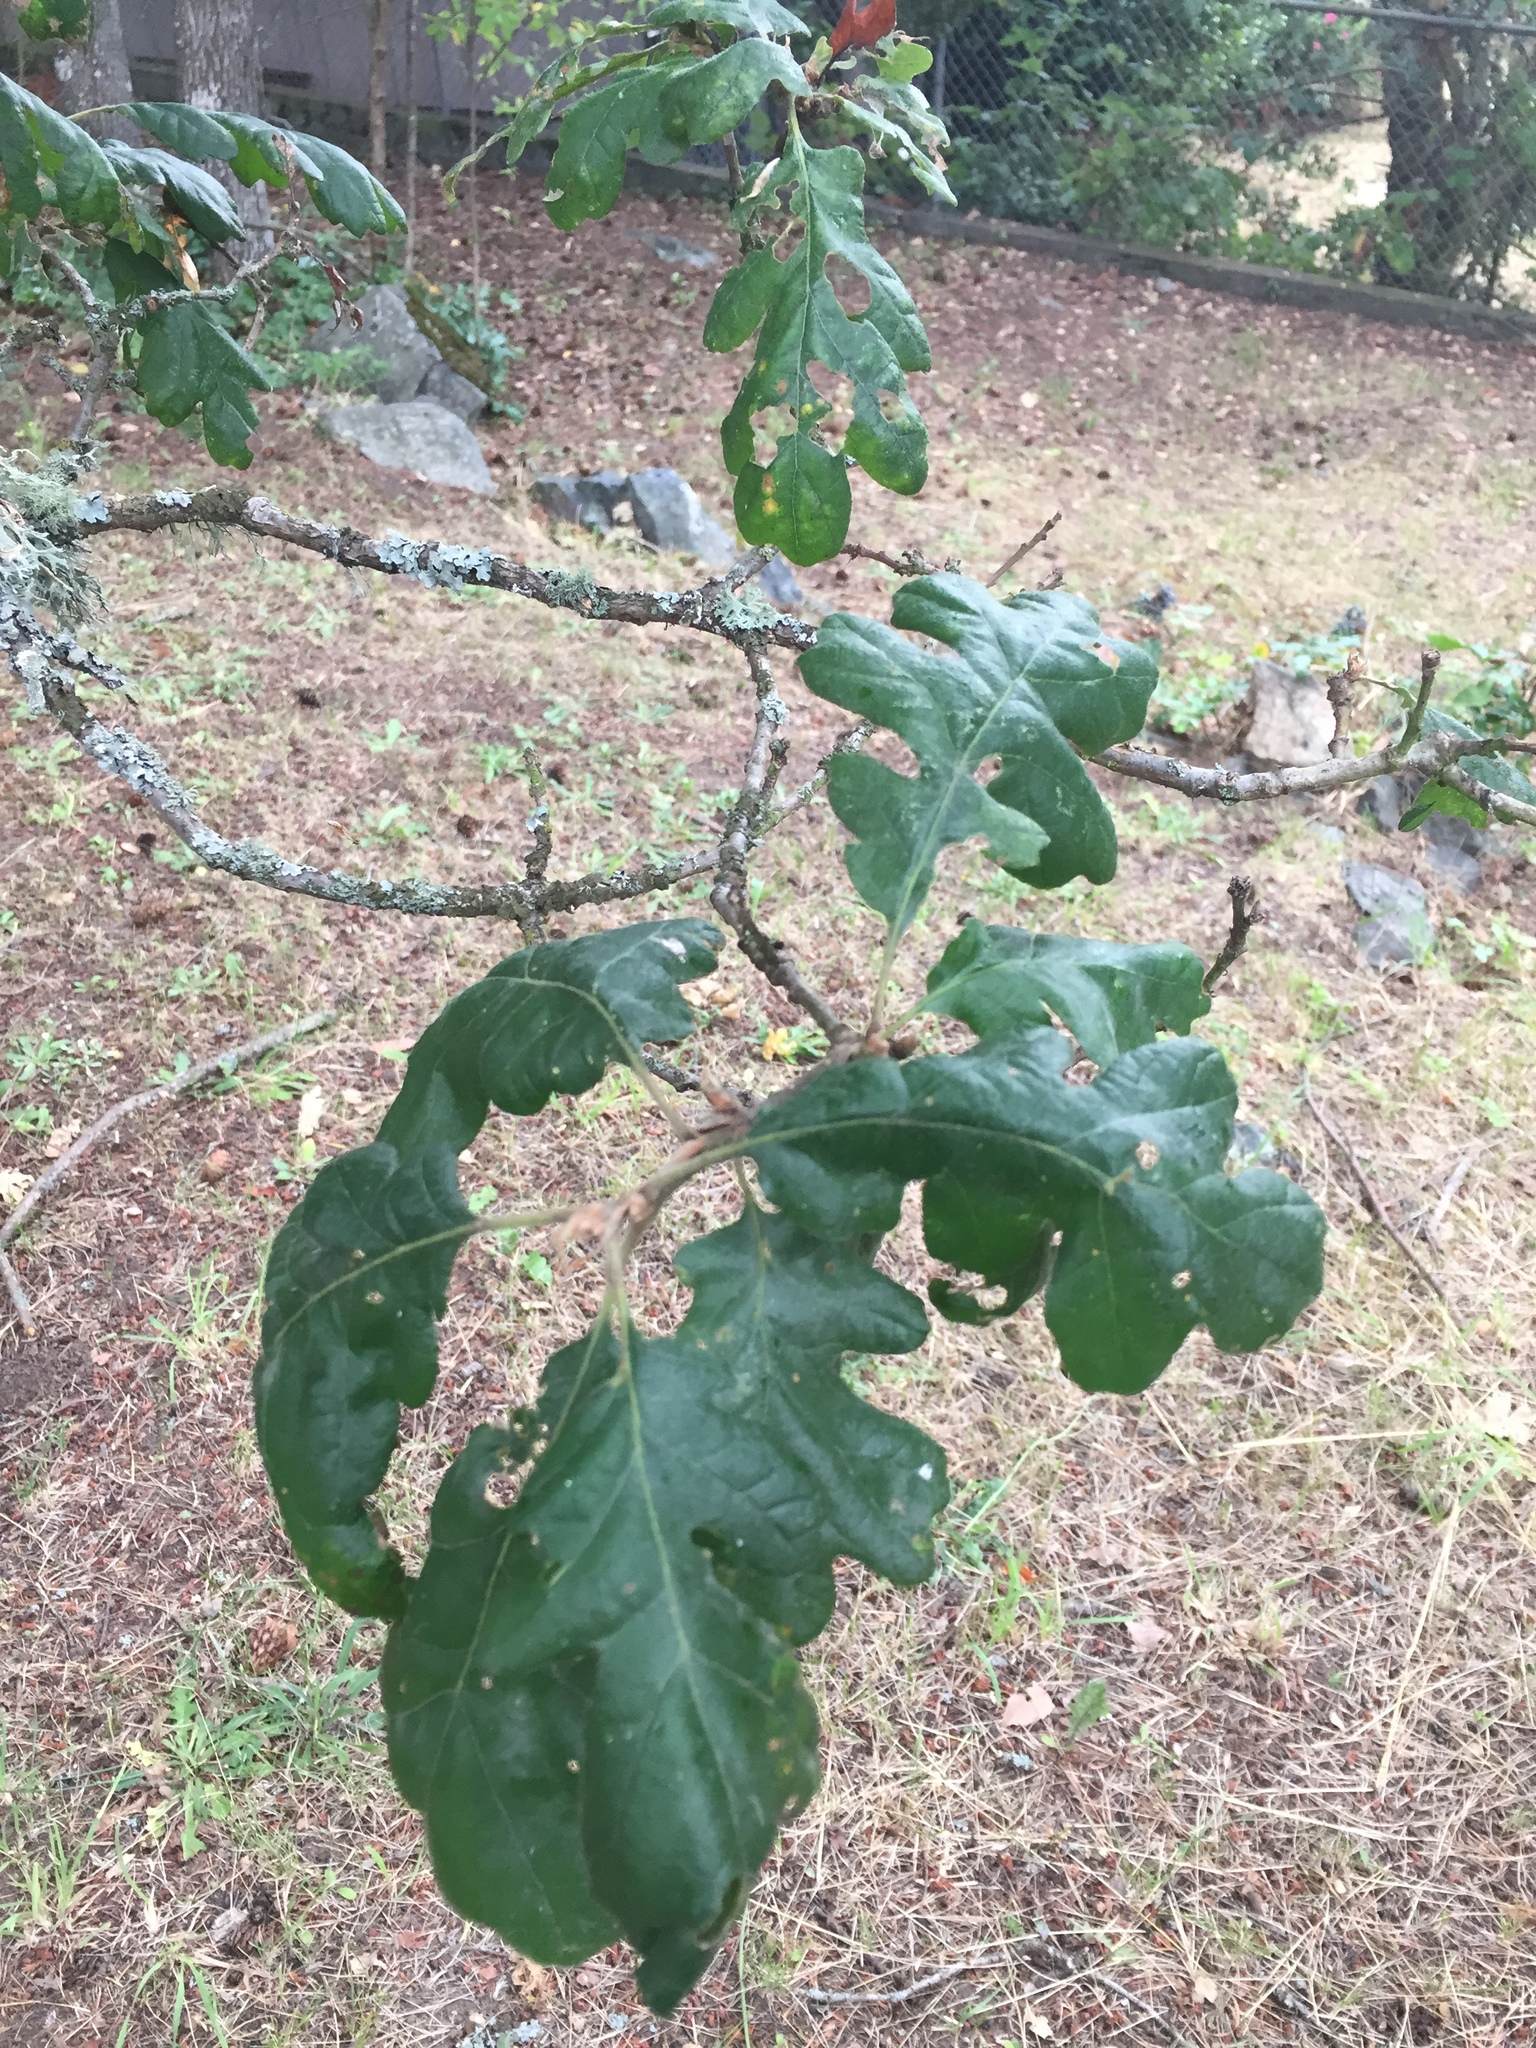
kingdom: Plantae
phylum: Tracheophyta
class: Magnoliopsida
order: Fagales
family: Fagaceae
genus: Quercus
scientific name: Quercus garryana
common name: Garry oak
